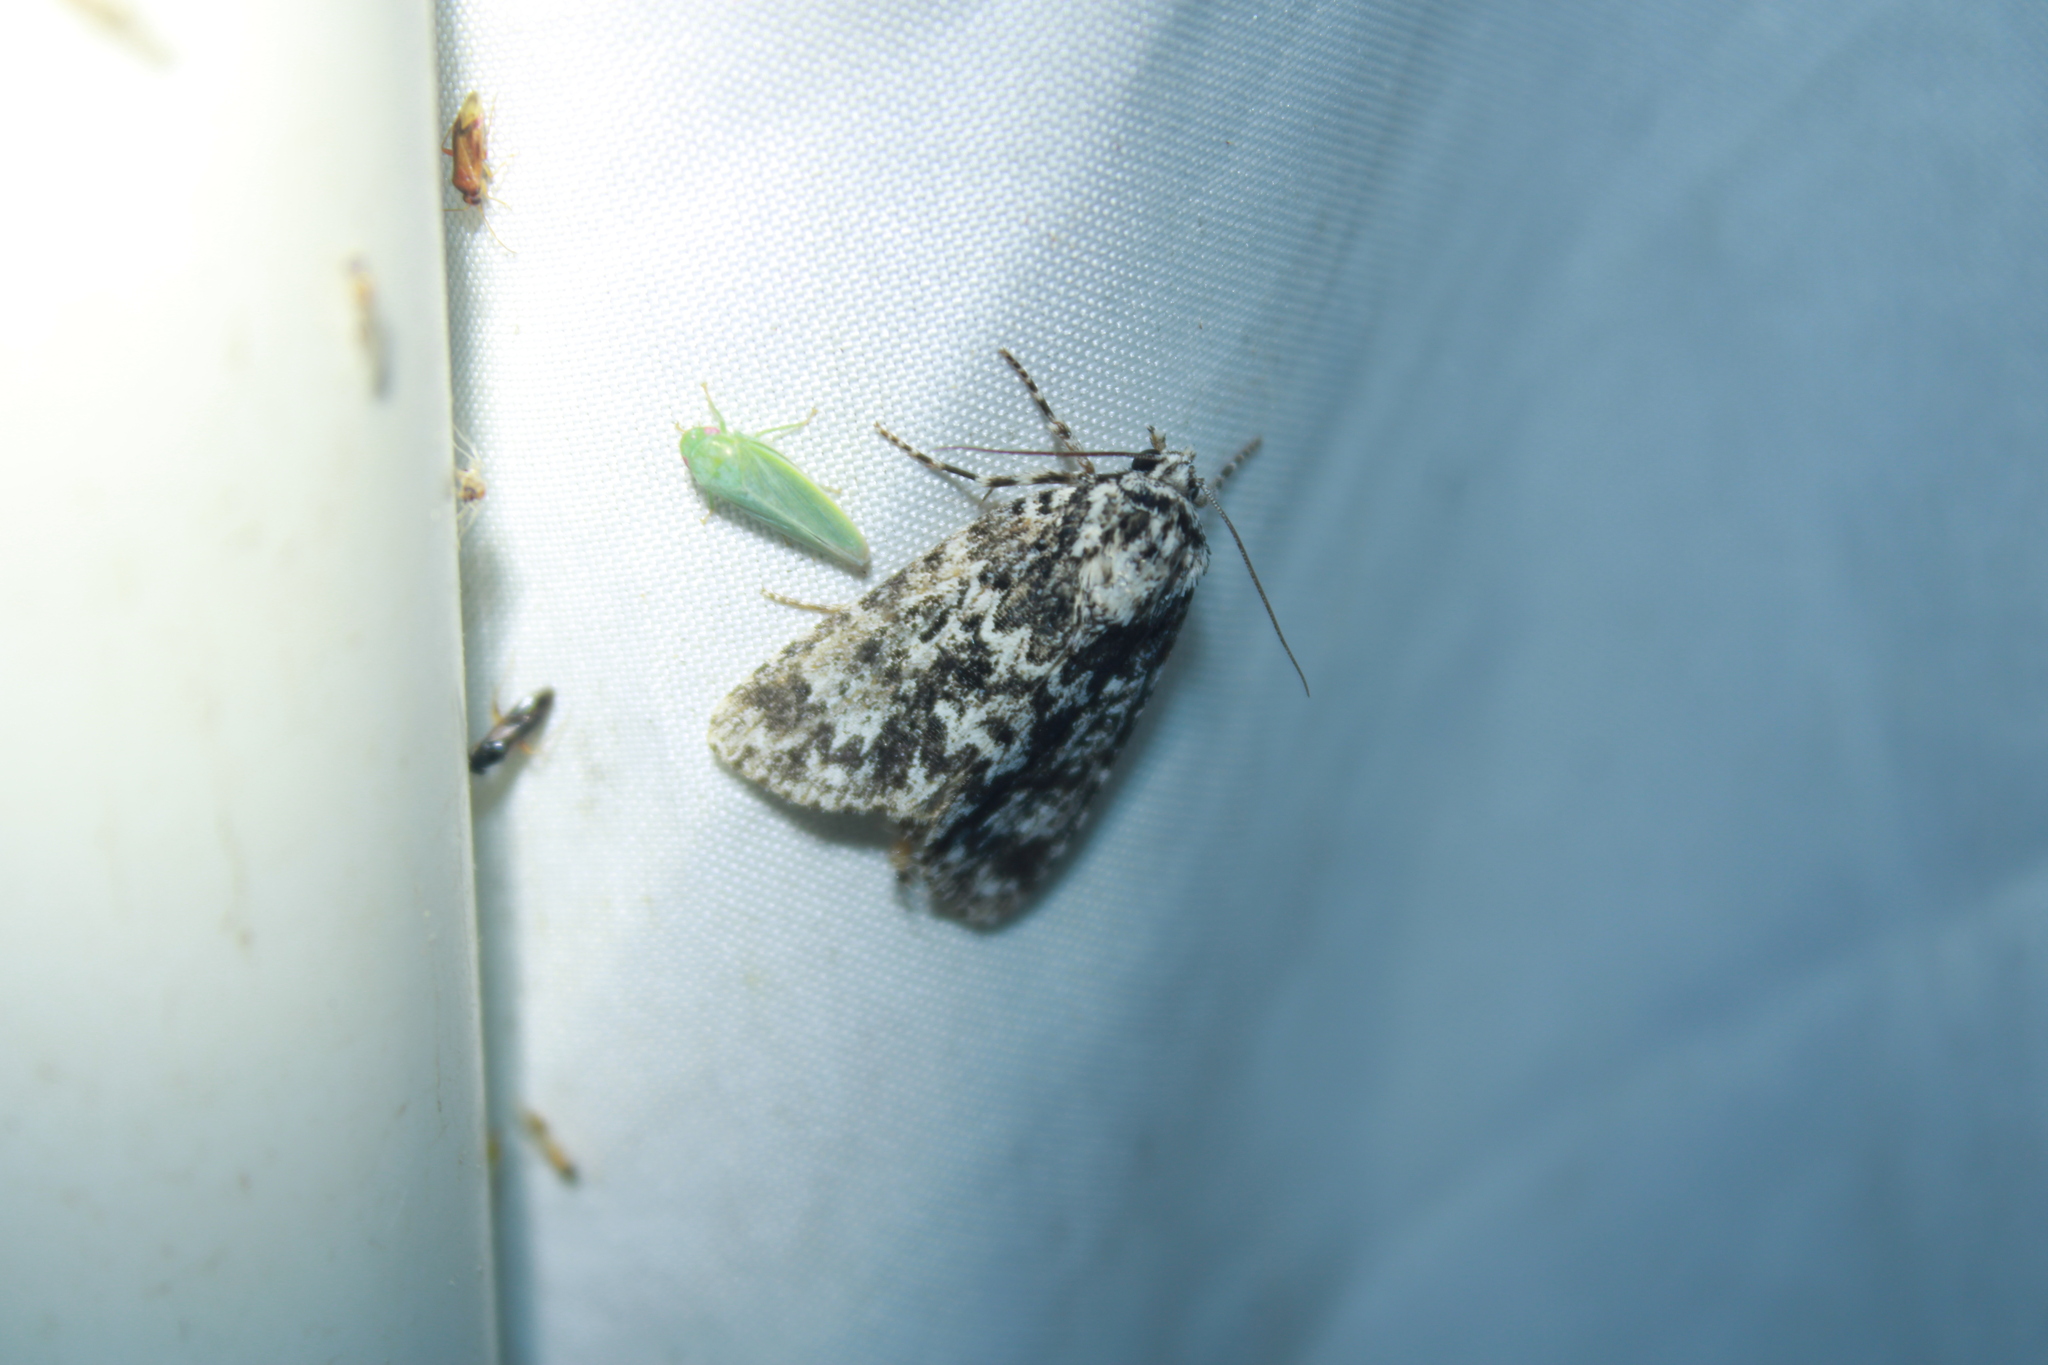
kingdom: Animalia
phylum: Arthropoda
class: Insecta
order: Lepidoptera
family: Noctuidae
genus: Acronicta
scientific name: Acronicta noctivaga
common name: Night-wandering dagger
